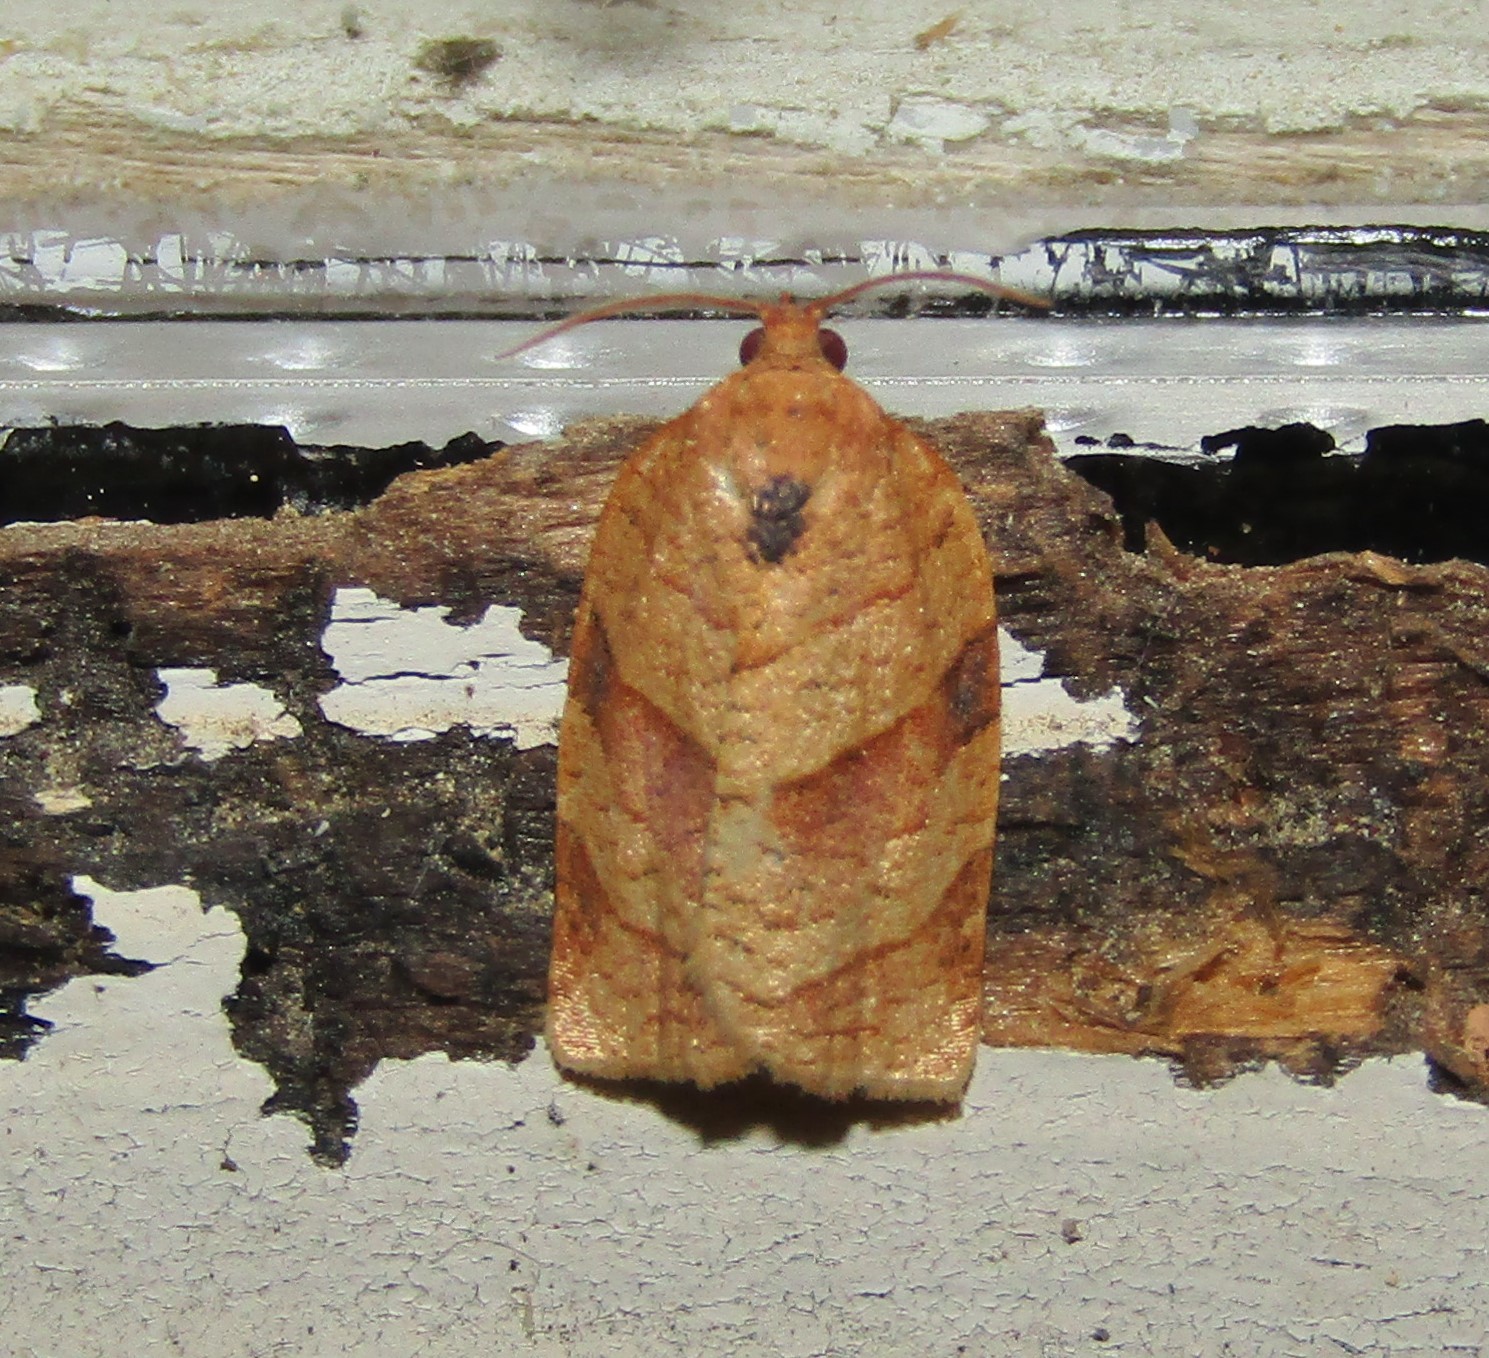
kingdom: Animalia
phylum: Arthropoda
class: Insecta
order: Lepidoptera
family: Tortricidae
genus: Choristoneura
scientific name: Choristoneura parallela
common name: Parallel-banded leafroller moth
